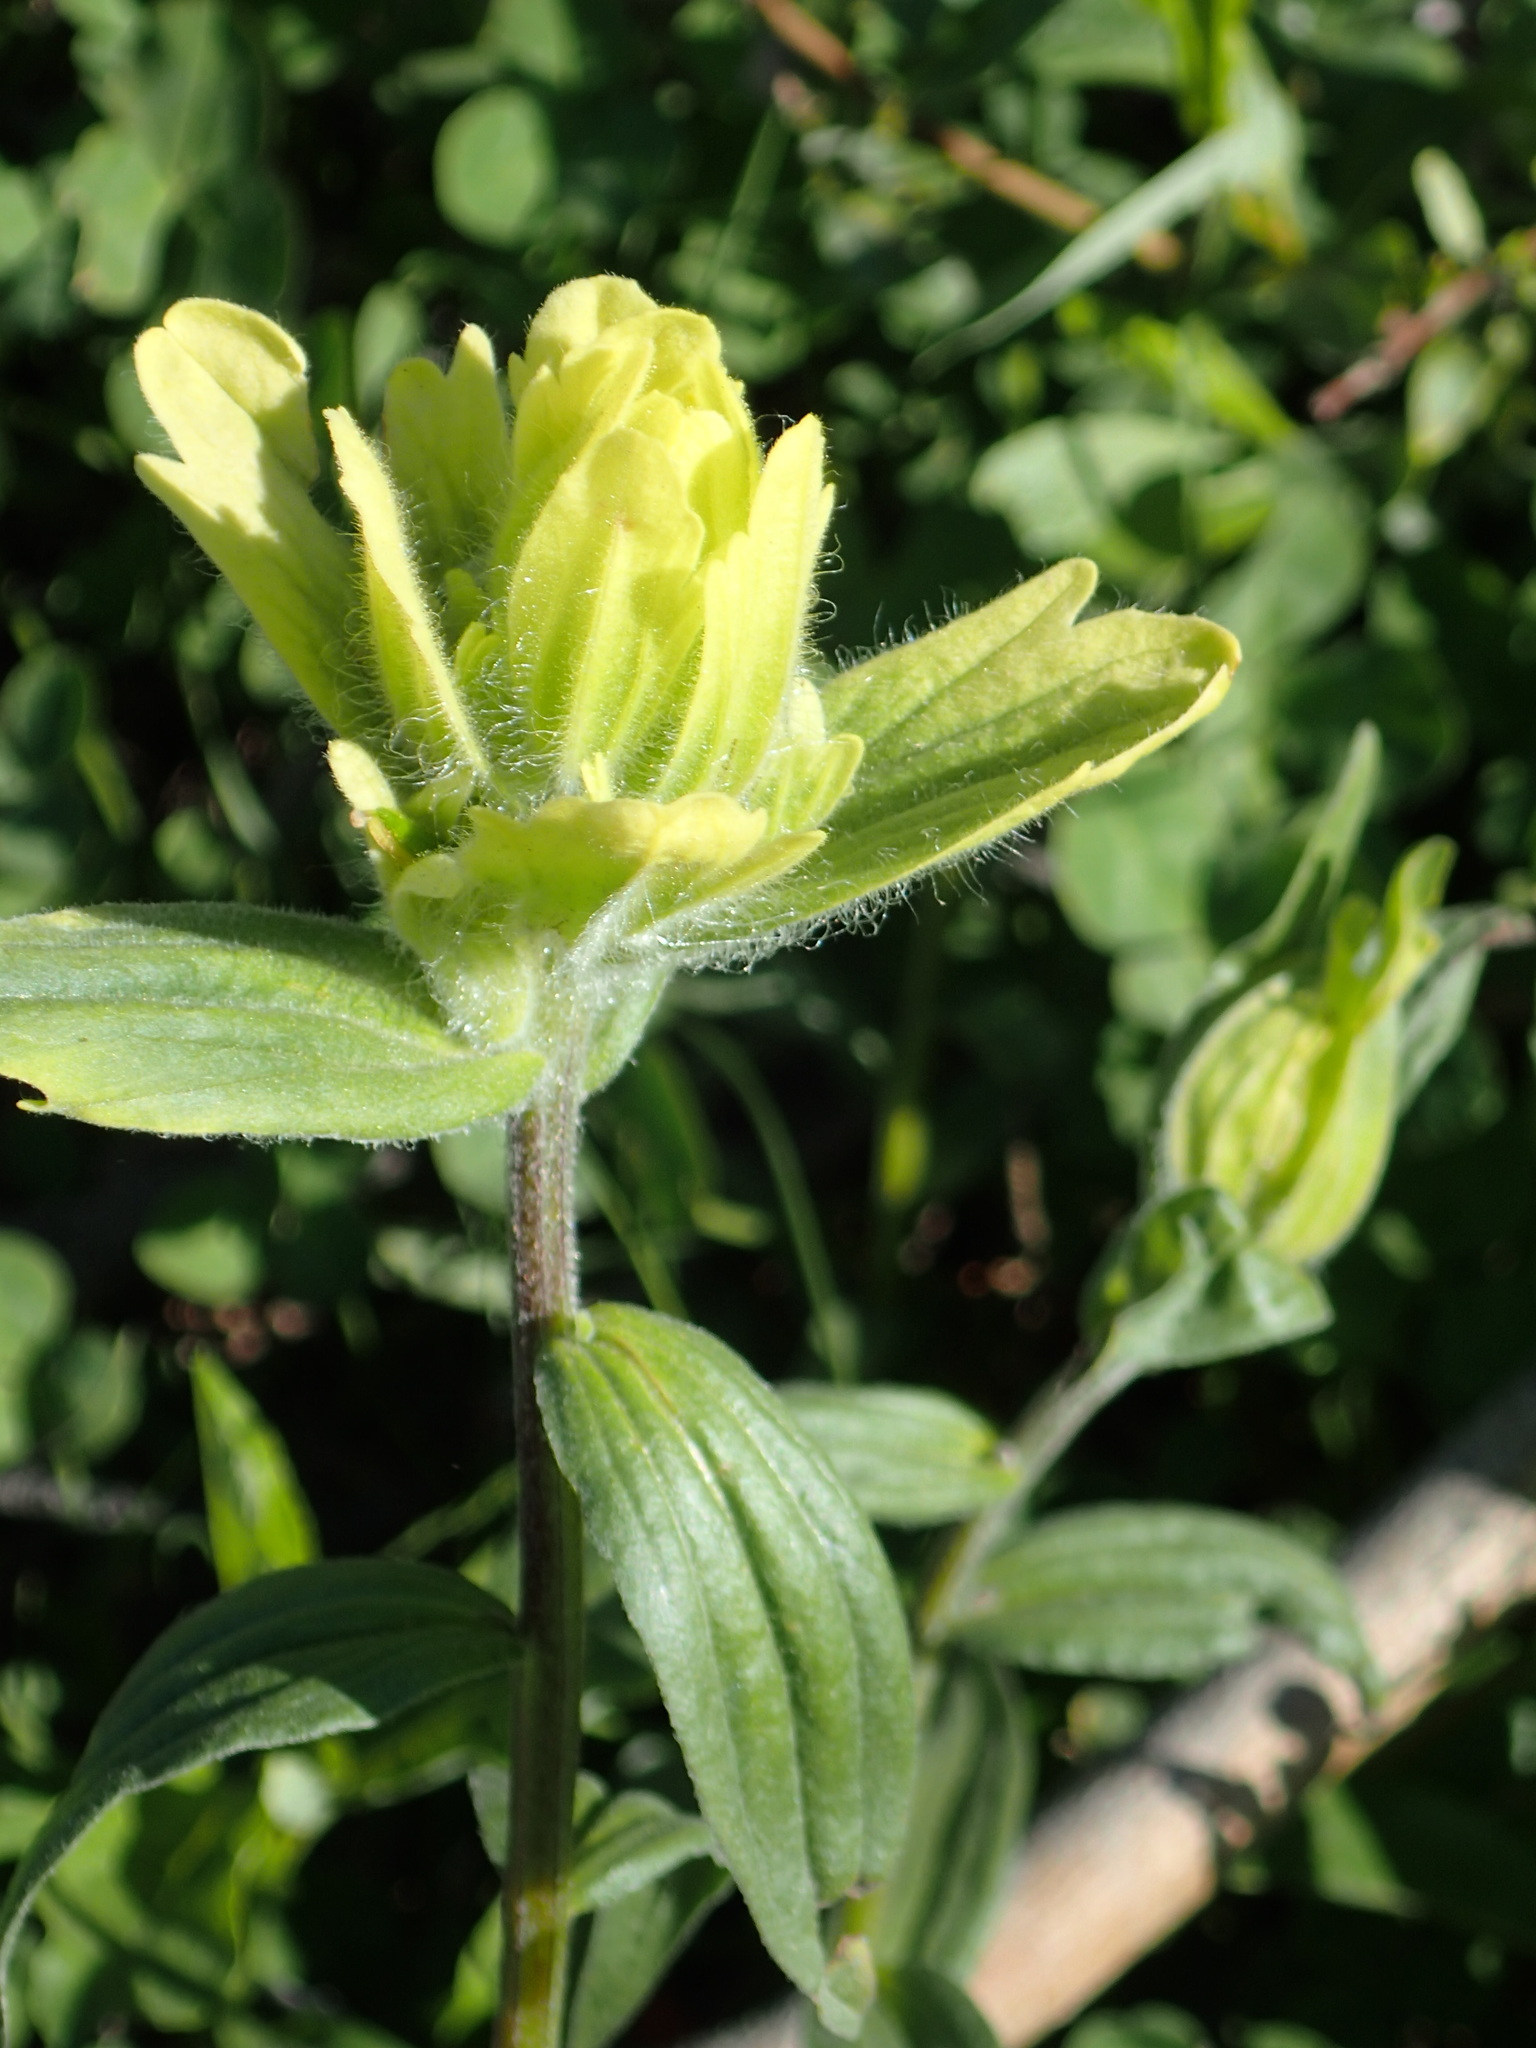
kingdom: Plantae
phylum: Tracheophyta
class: Magnoliopsida
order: Lamiales
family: Orobanchaceae
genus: Castilleja
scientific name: Castilleja unalaschcensis
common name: Unalaska paintbrush
